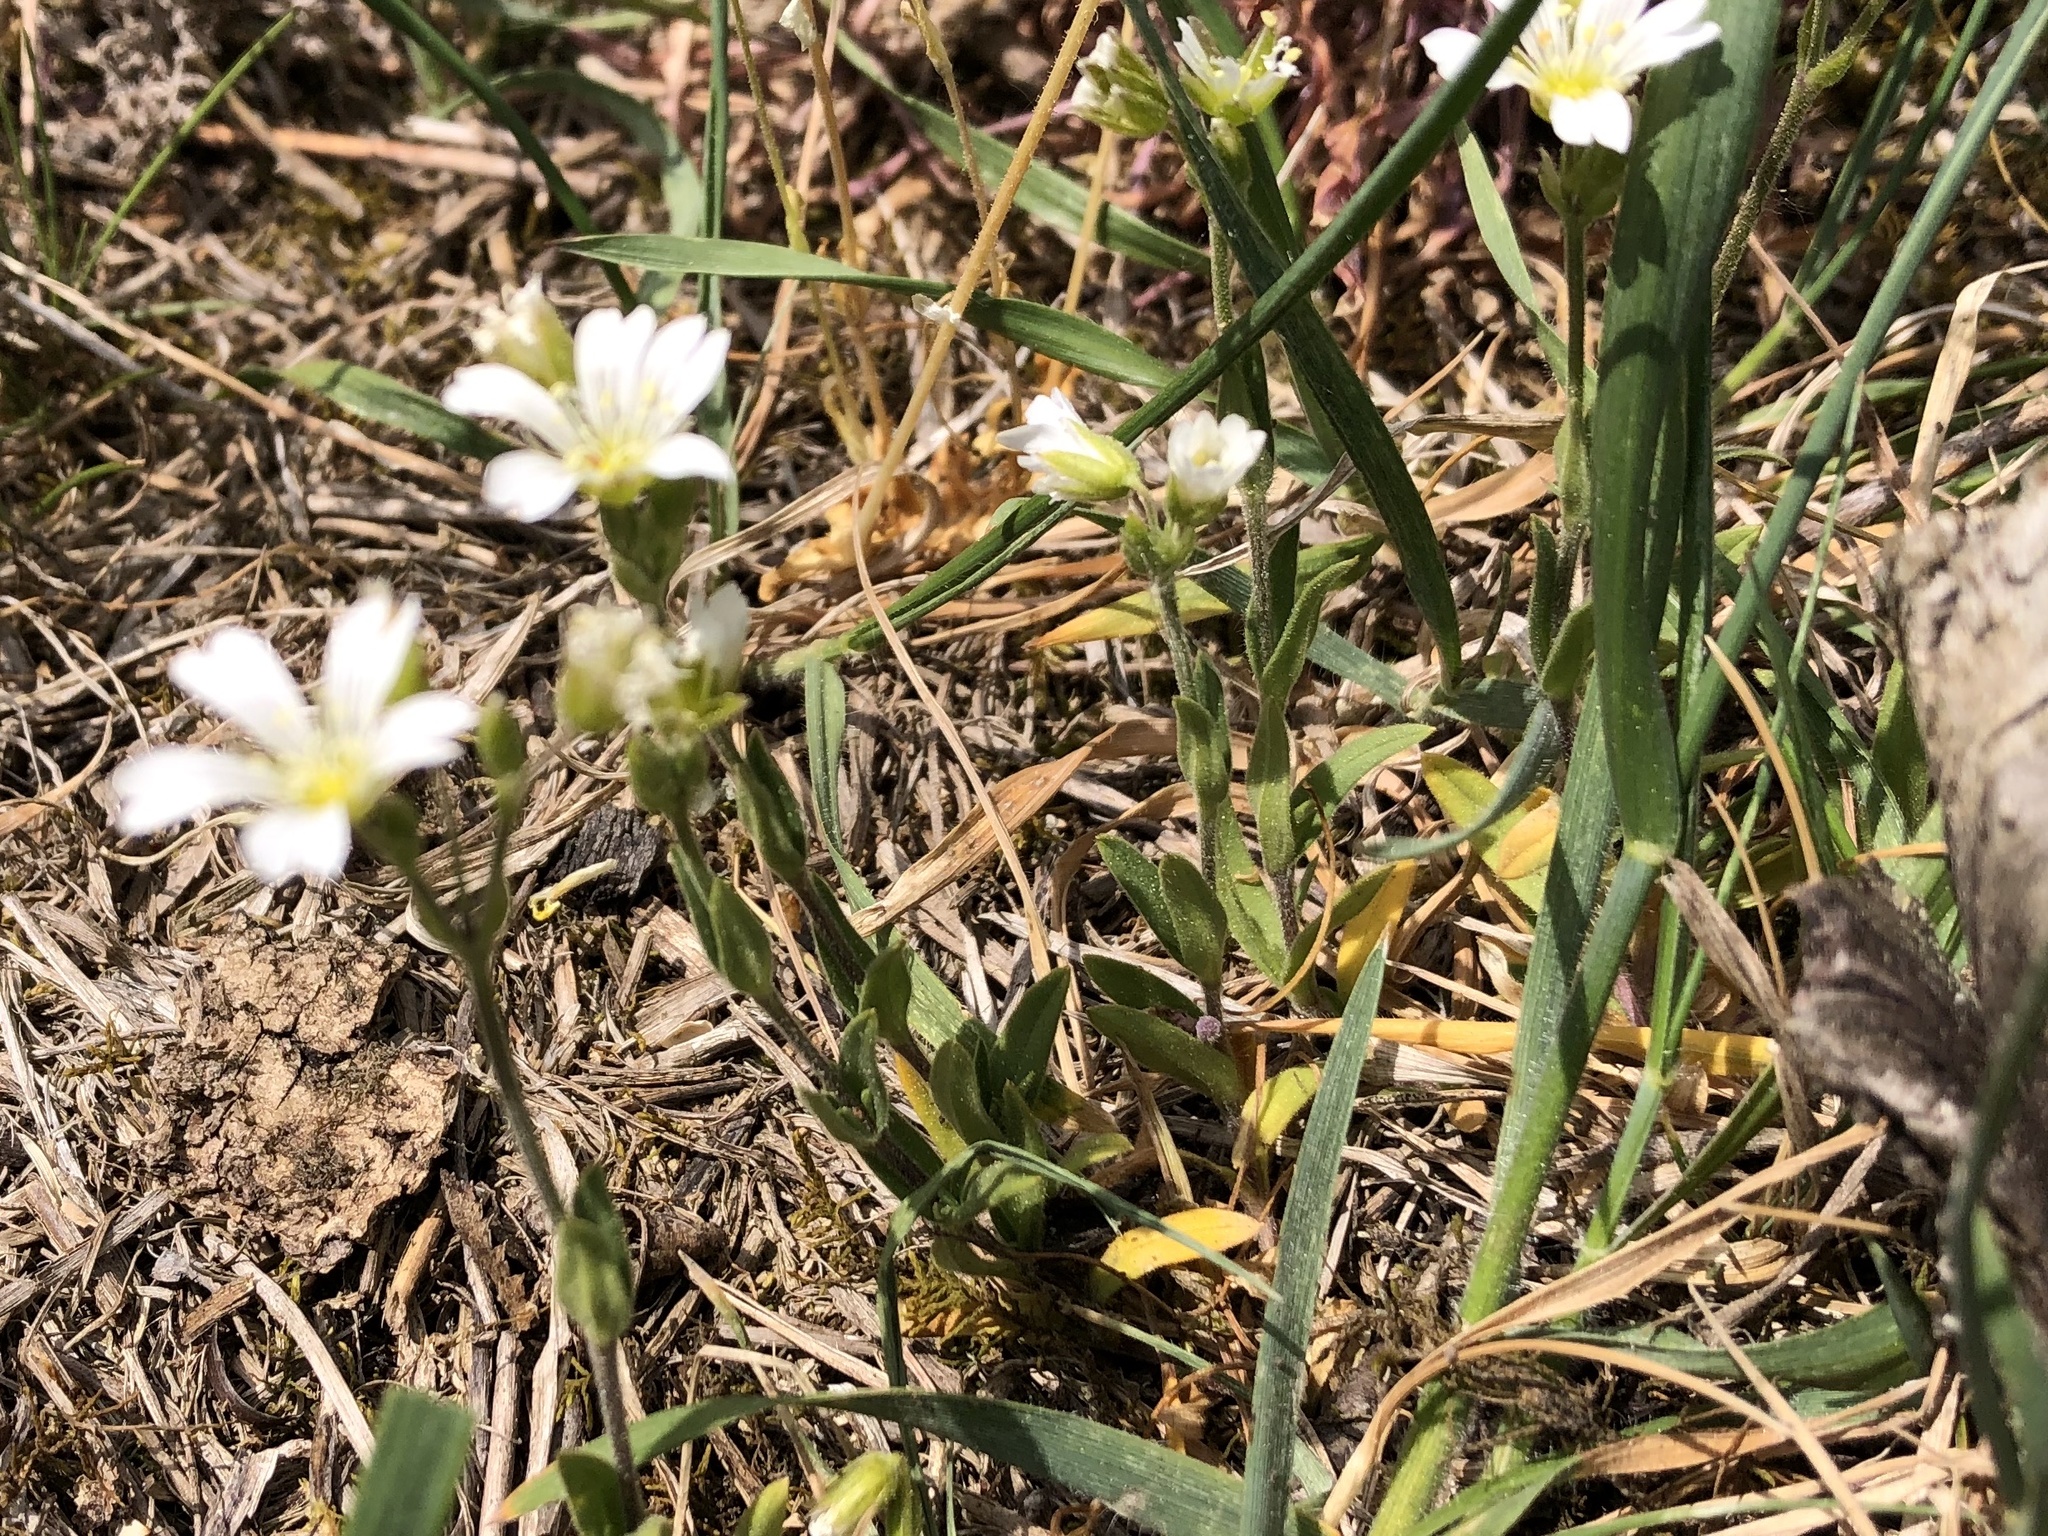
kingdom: Plantae
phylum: Tracheophyta
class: Magnoliopsida
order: Caryophyllales
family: Caryophyllaceae
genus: Cerastium
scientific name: Cerastium arvense
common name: Field mouse-ear
